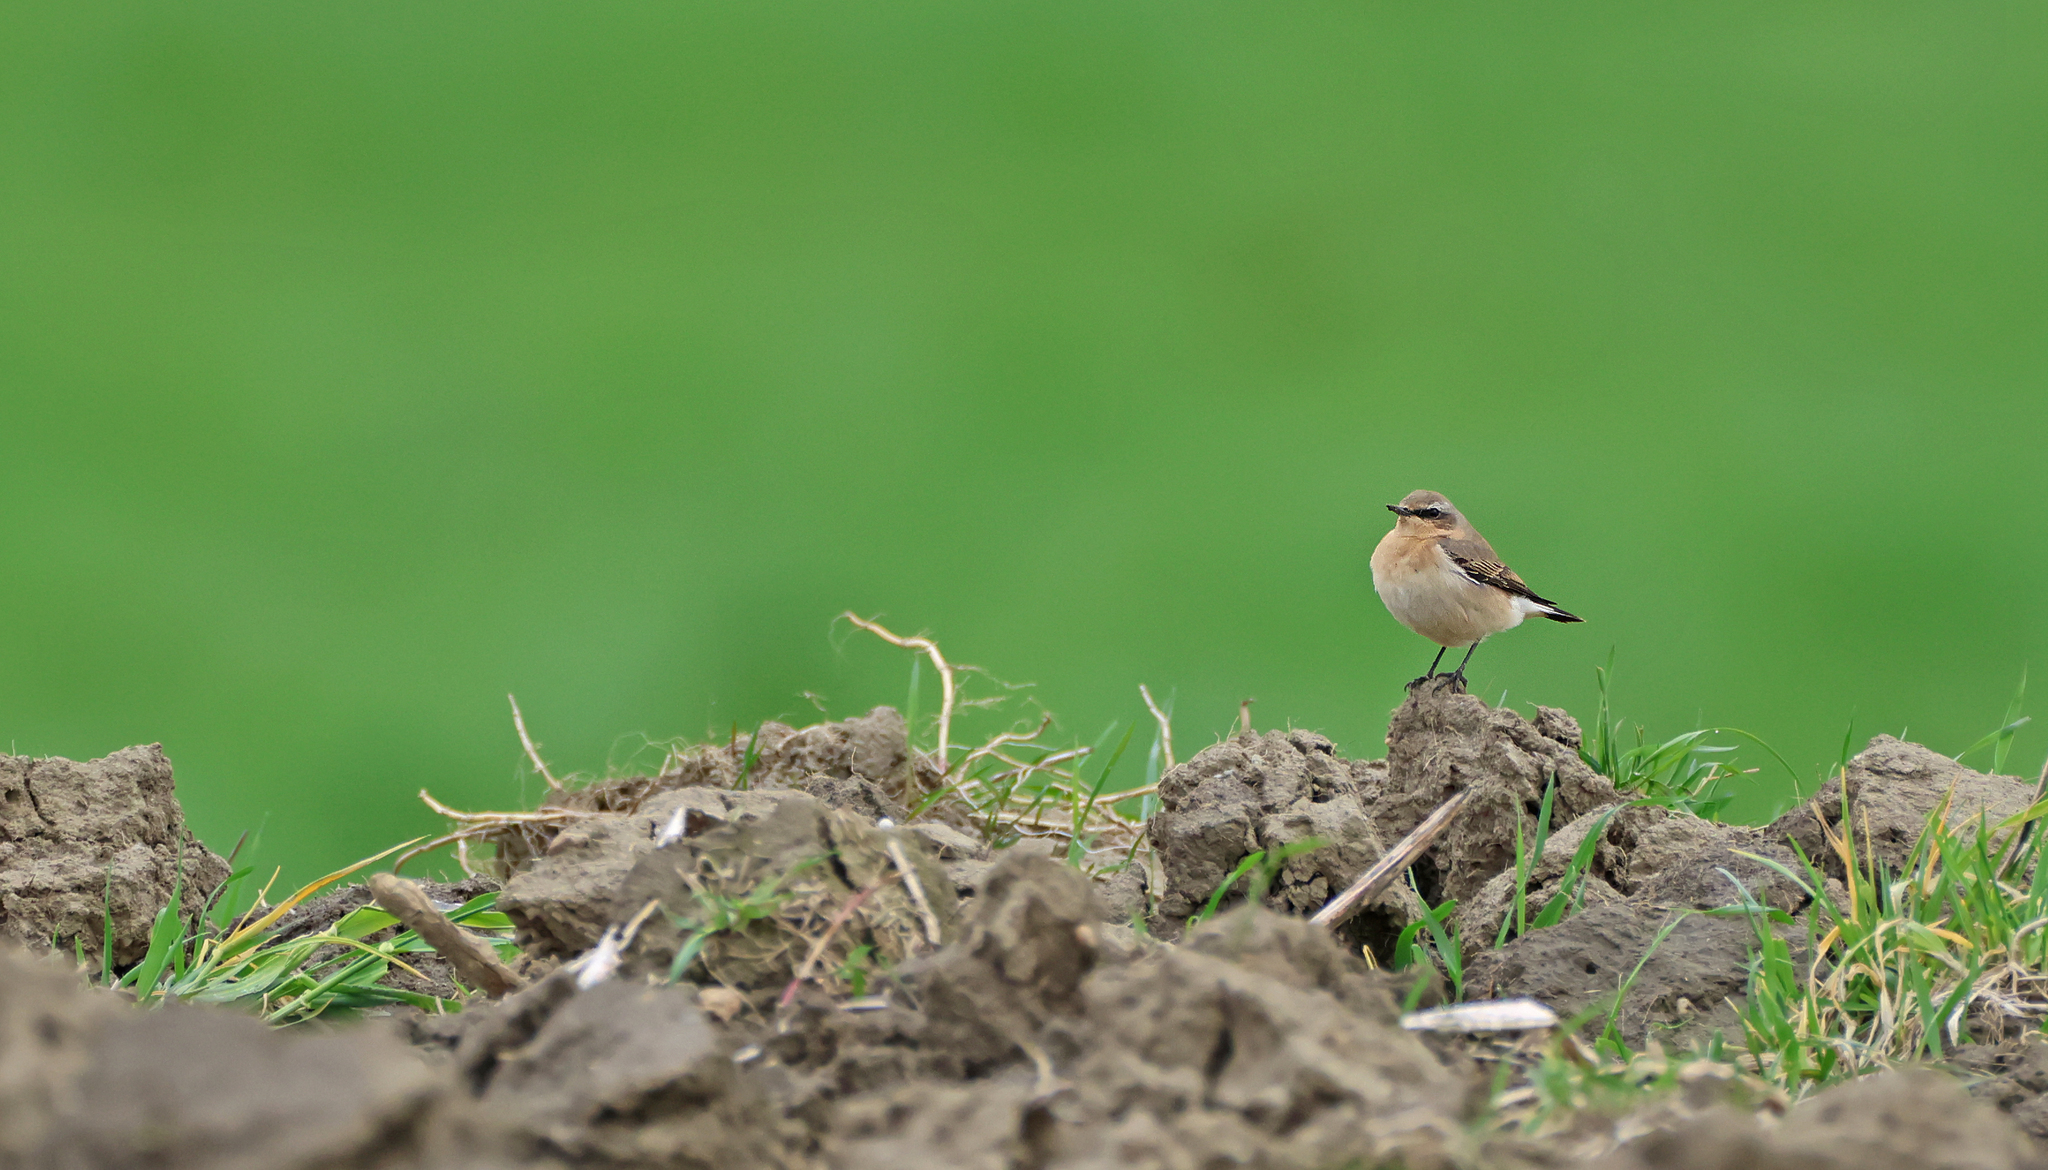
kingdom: Animalia
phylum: Chordata
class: Aves
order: Passeriformes
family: Muscicapidae
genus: Oenanthe
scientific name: Oenanthe oenanthe
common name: Northern wheatear
